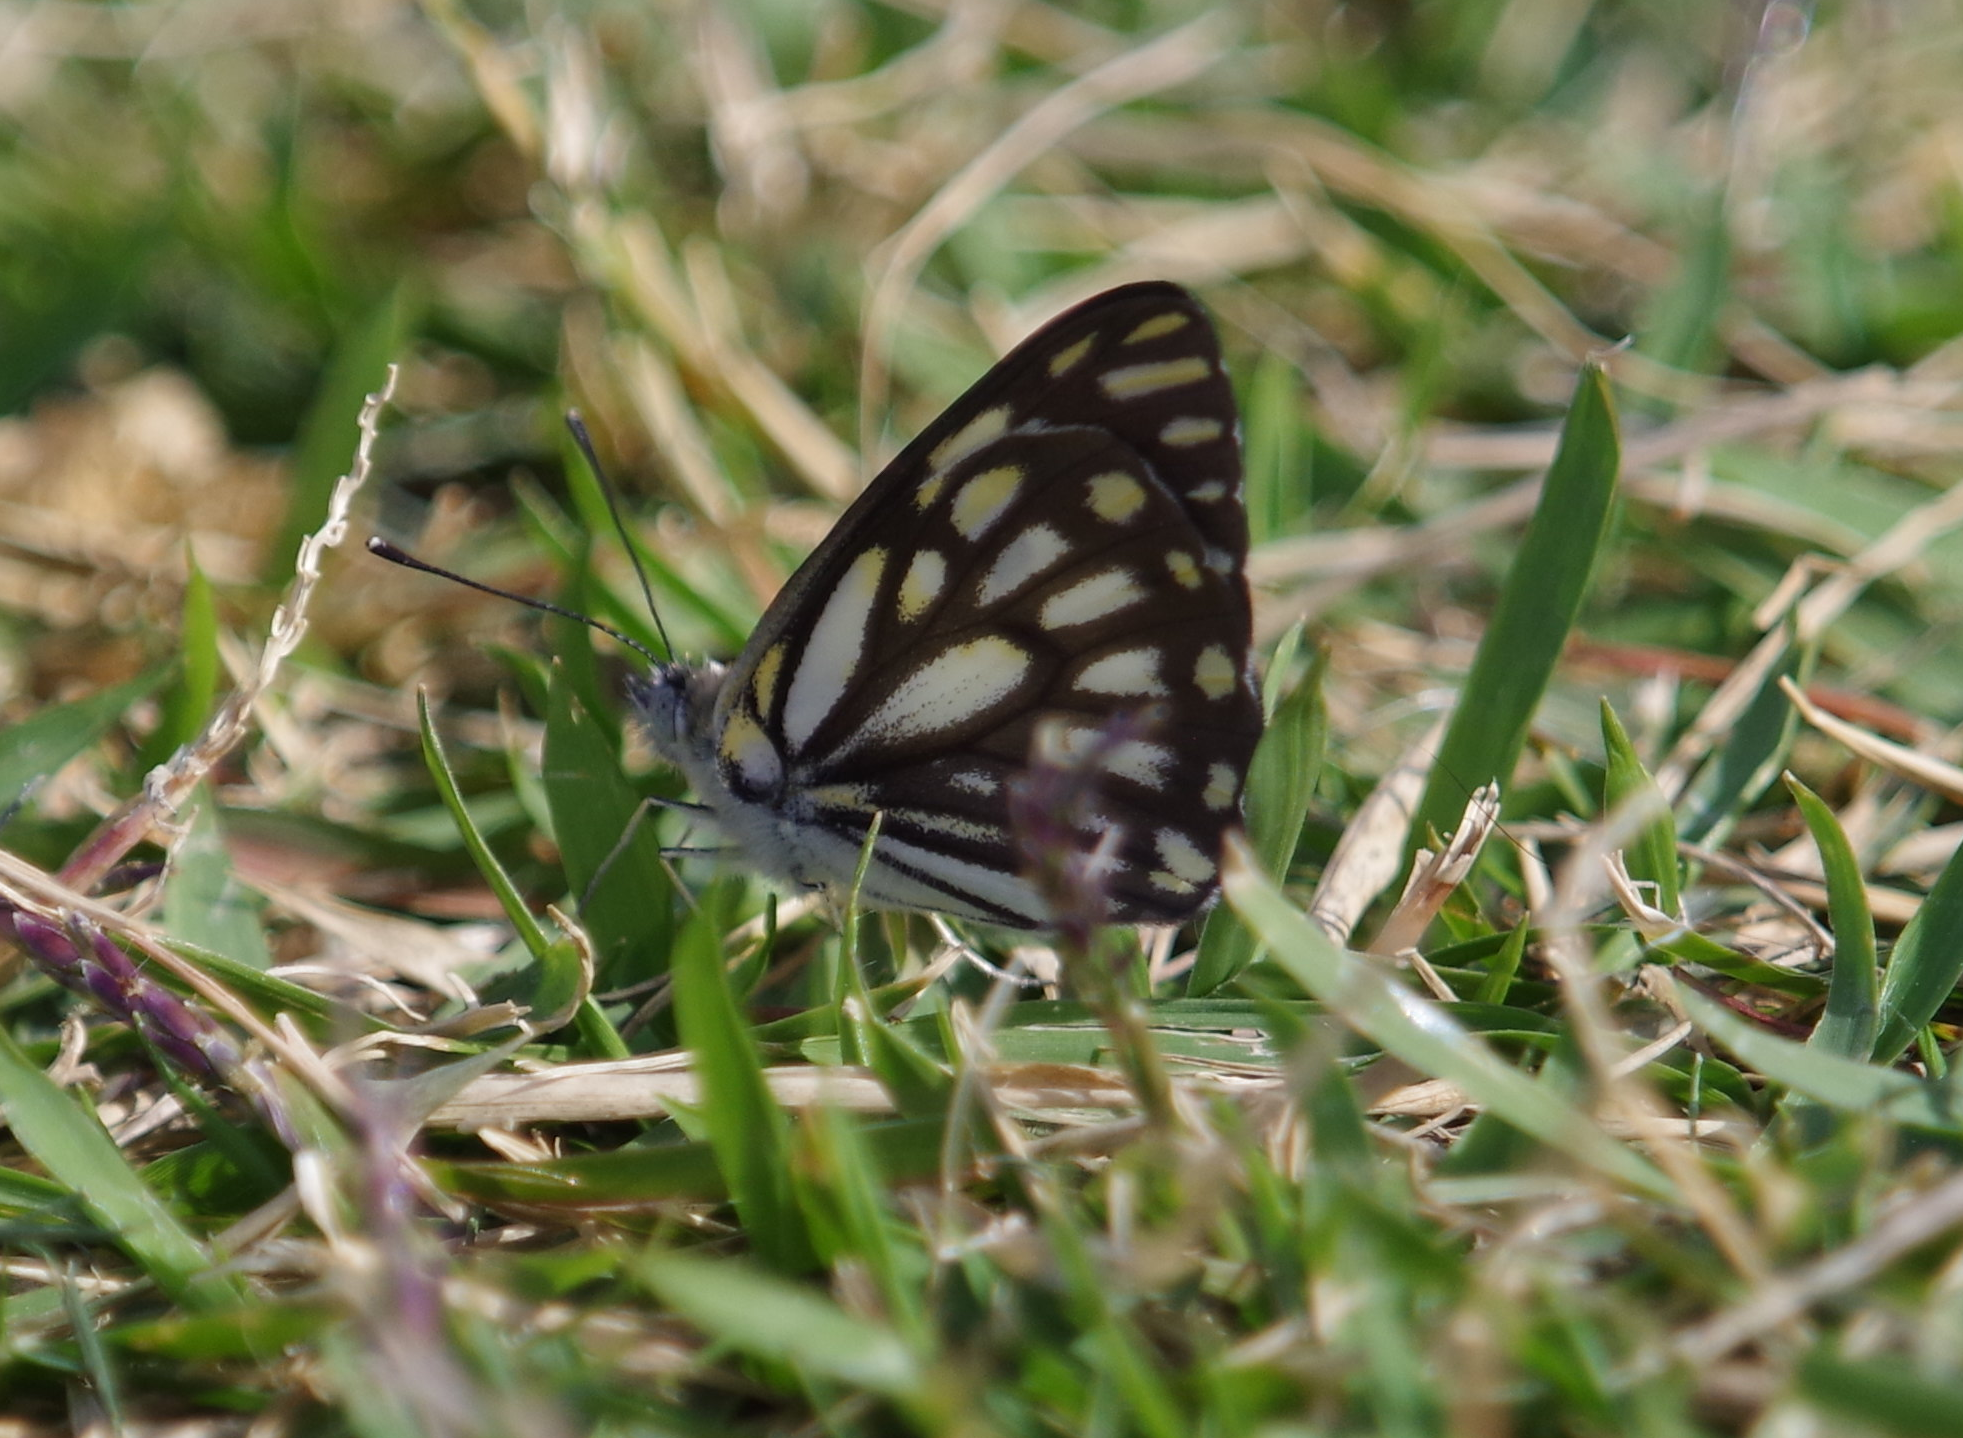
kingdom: Animalia
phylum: Arthropoda
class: Insecta
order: Lepidoptera
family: Pieridae
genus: Belenois
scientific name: Belenois aurota
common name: Brown-veined white
